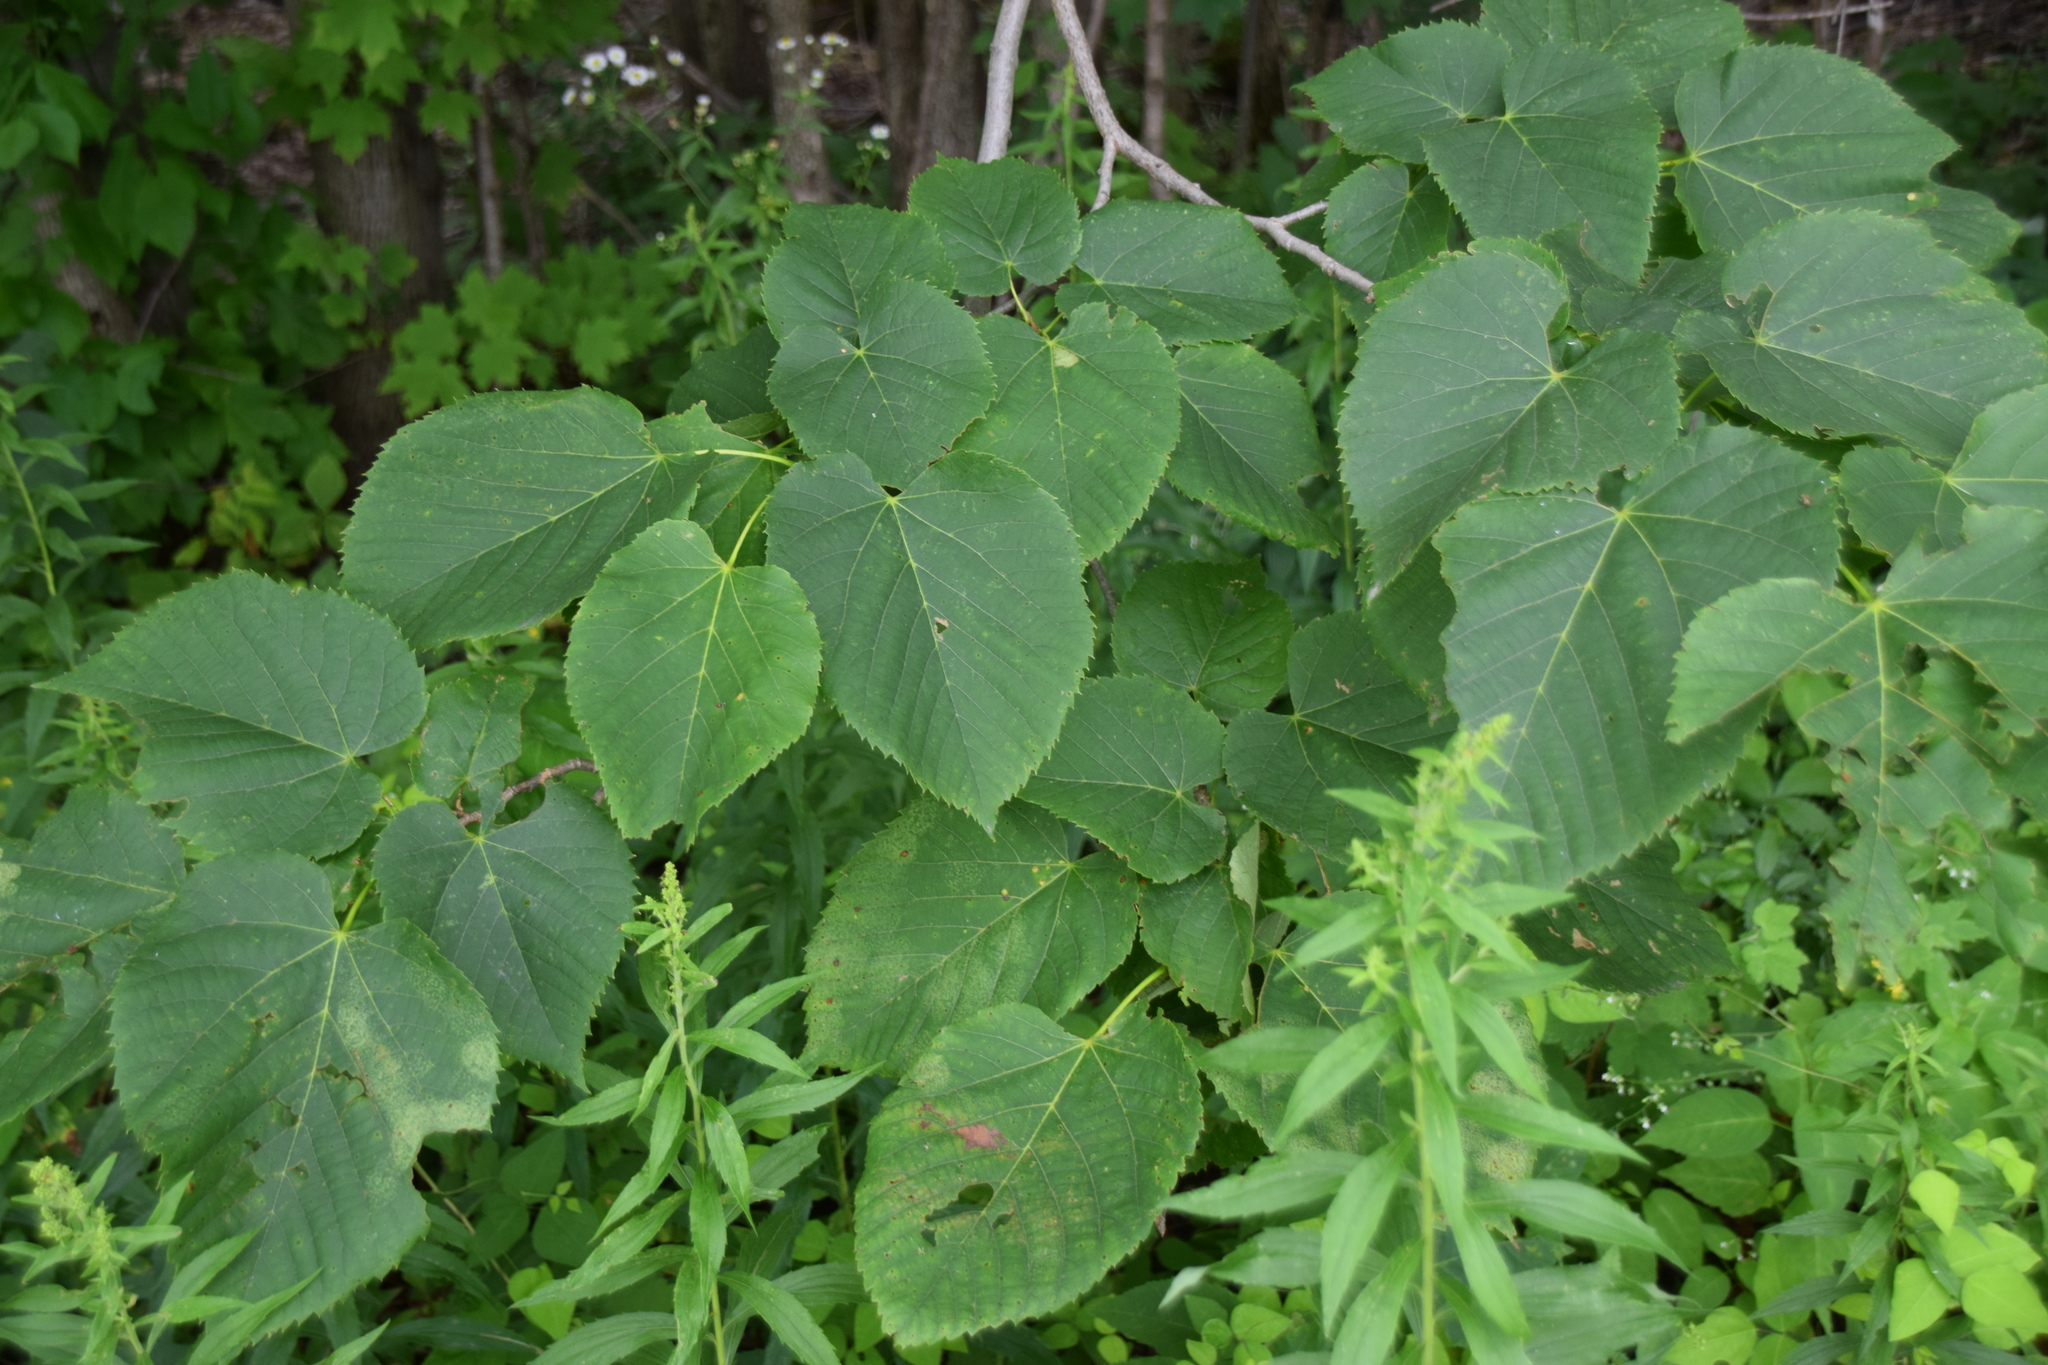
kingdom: Plantae
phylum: Tracheophyta
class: Magnoliopsida
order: Malvales
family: Malvaceae
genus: Tilia
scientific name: Tilia americana
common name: Basswood
